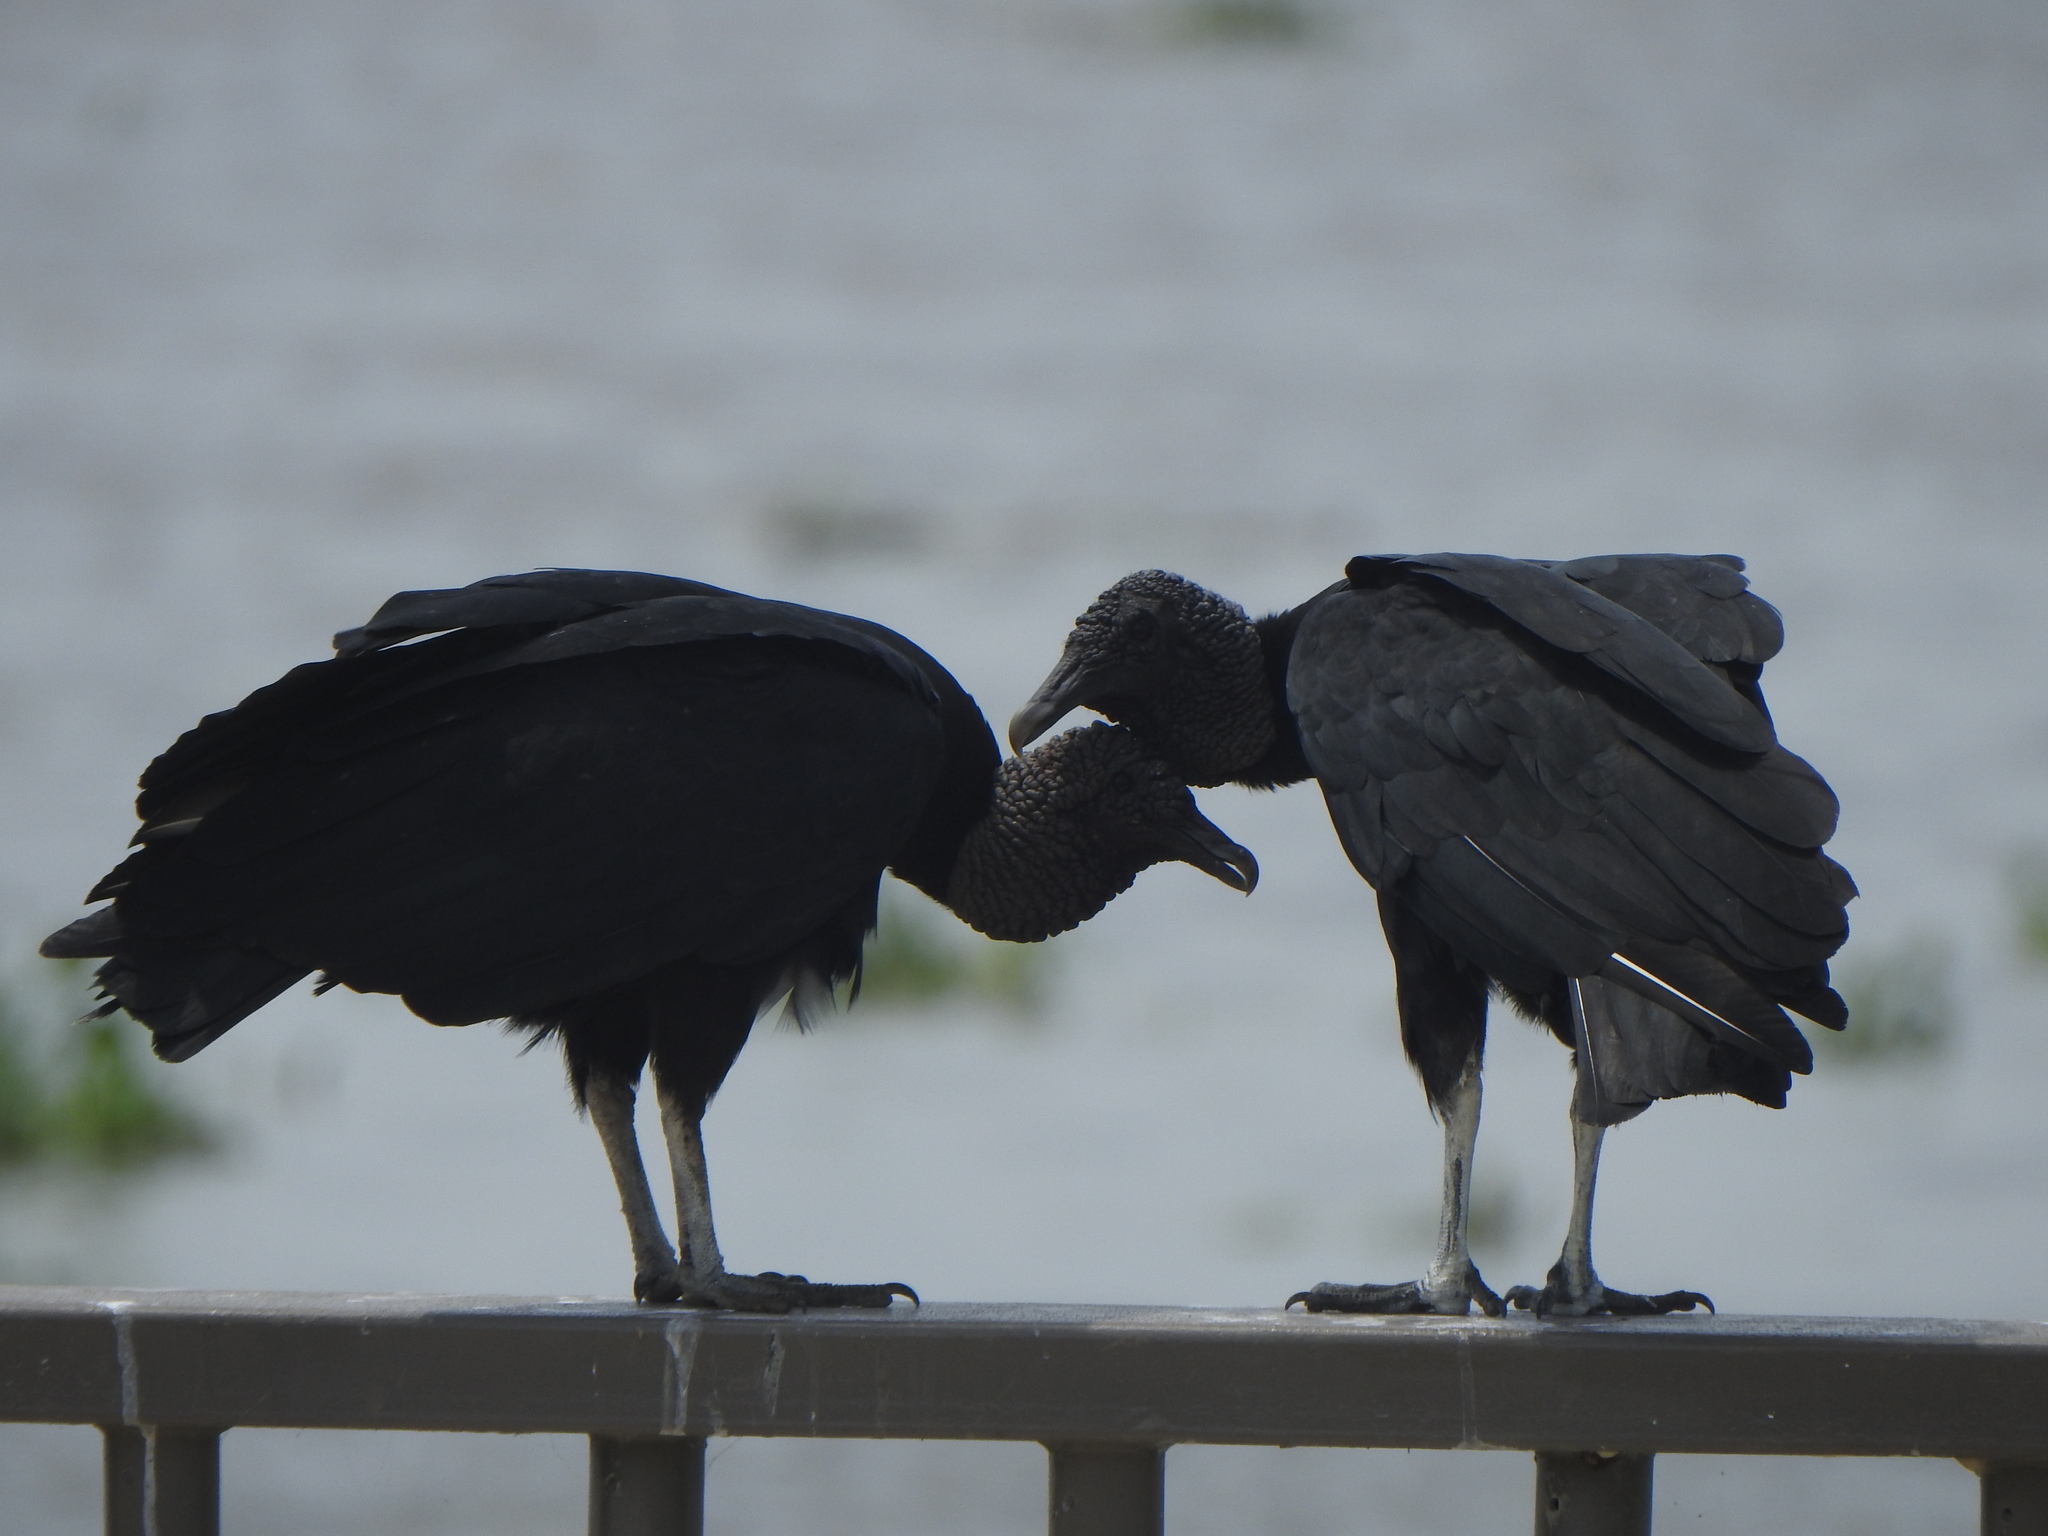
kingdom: Animalia
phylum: Chordata
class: Aves
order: Accipitriformes
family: Cathartidae
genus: Coragyps
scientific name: Coragyps atratus
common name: Black vulture
